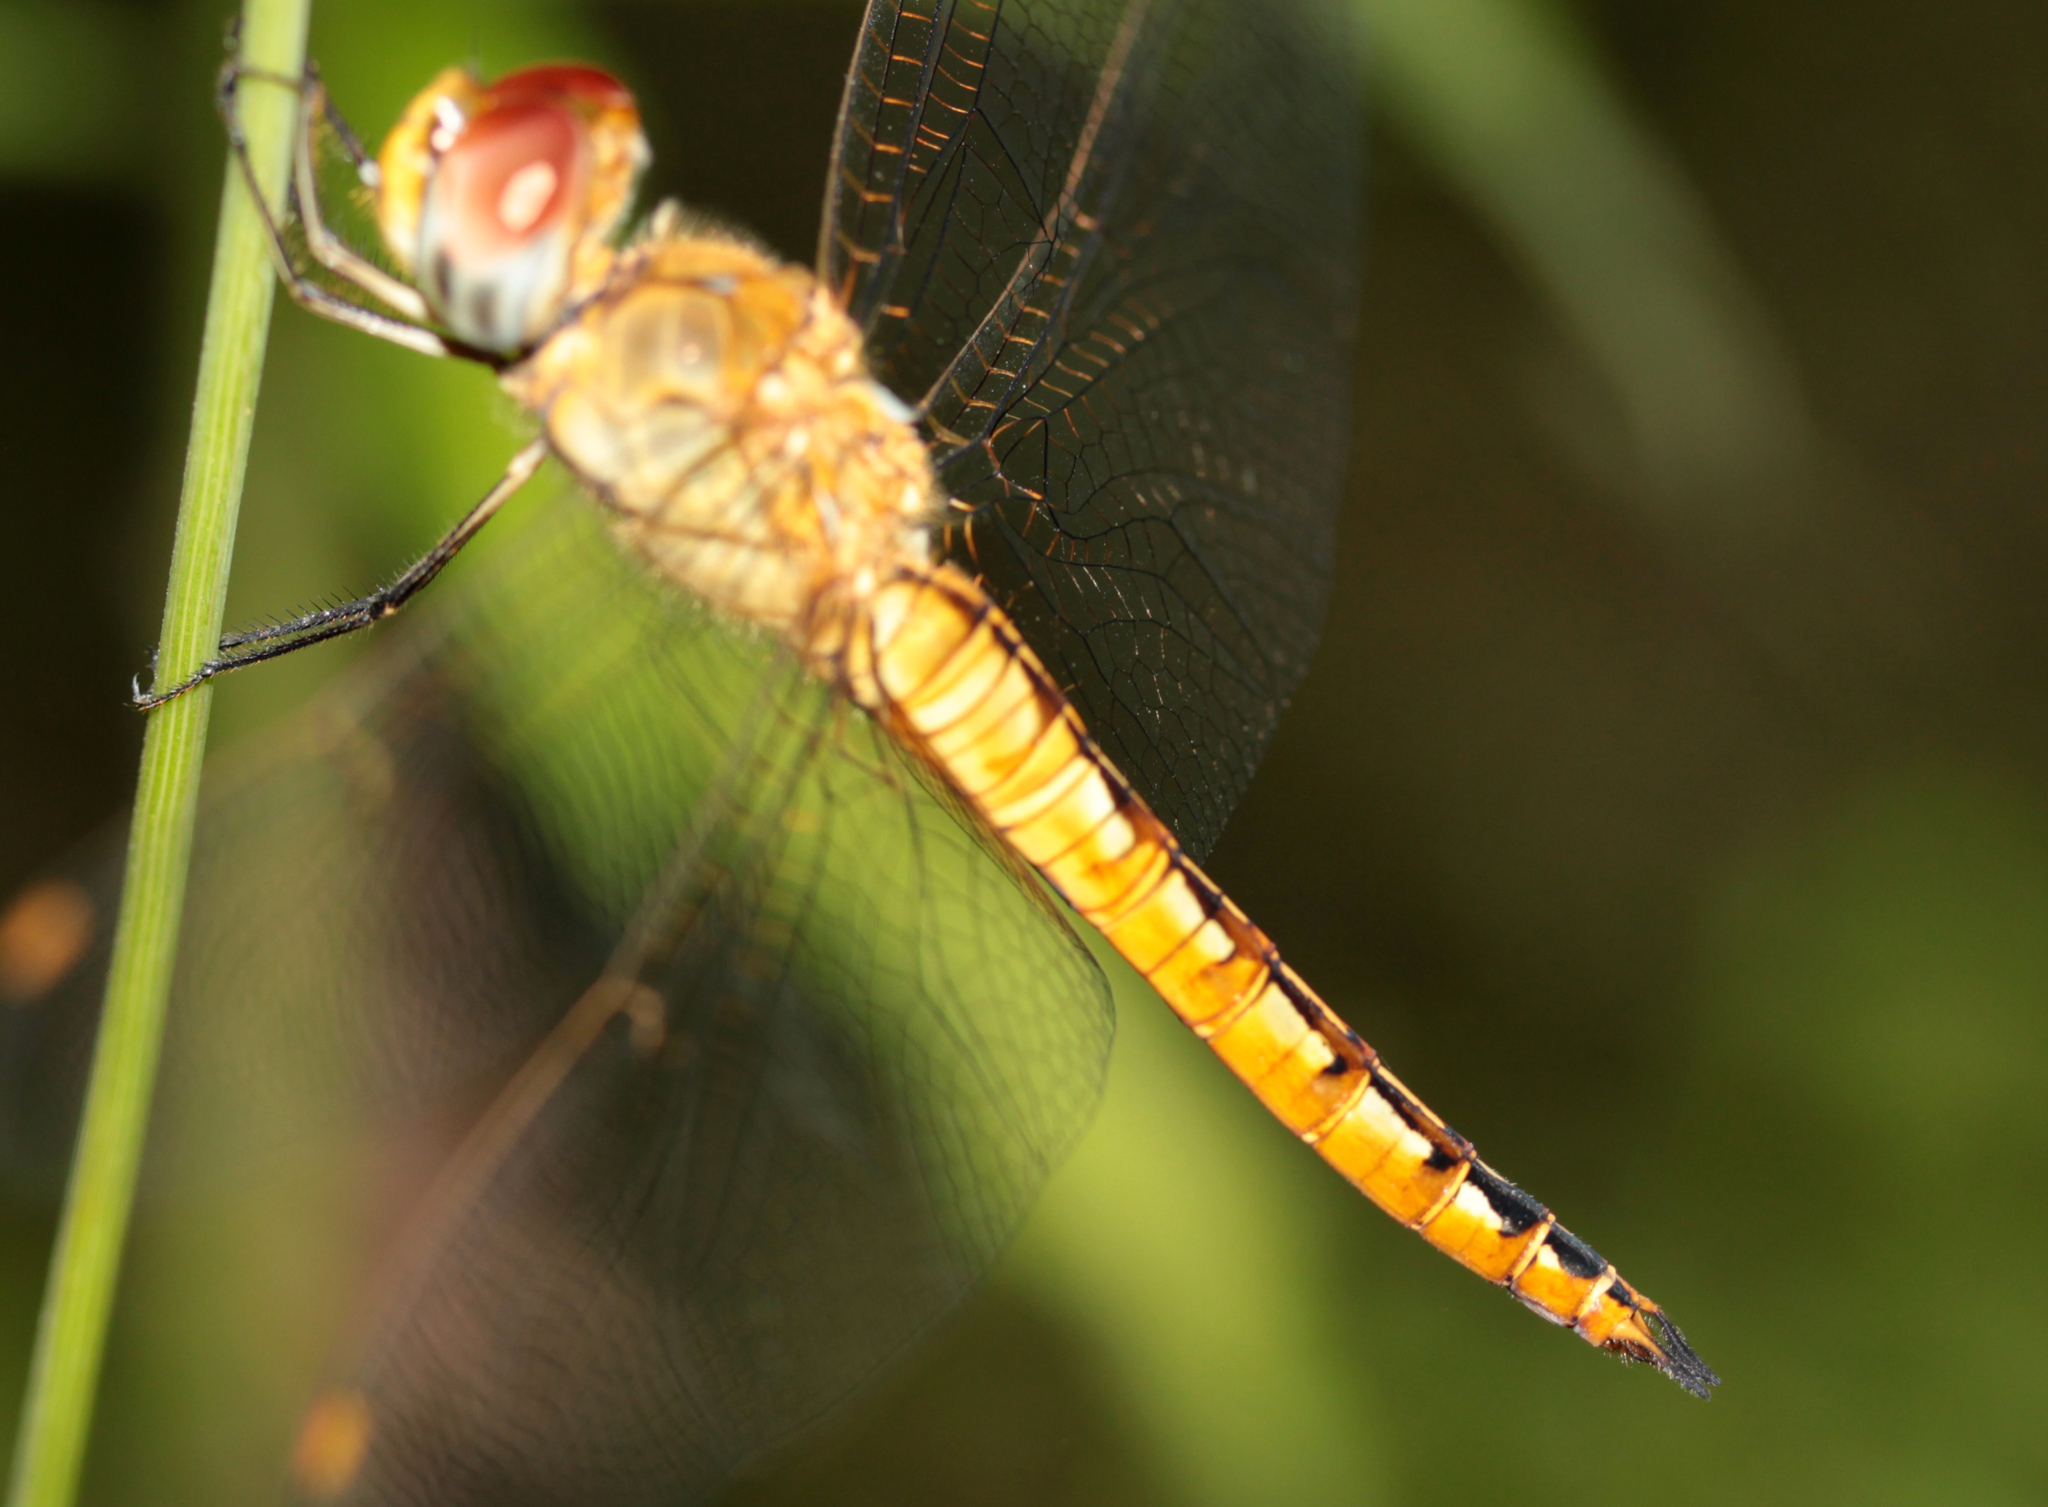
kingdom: Animalia
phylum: Arthropoda
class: Insecta
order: Odonata
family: Libellulidae
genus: Pantala
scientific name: Pantala flavescens
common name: Wandering glider
